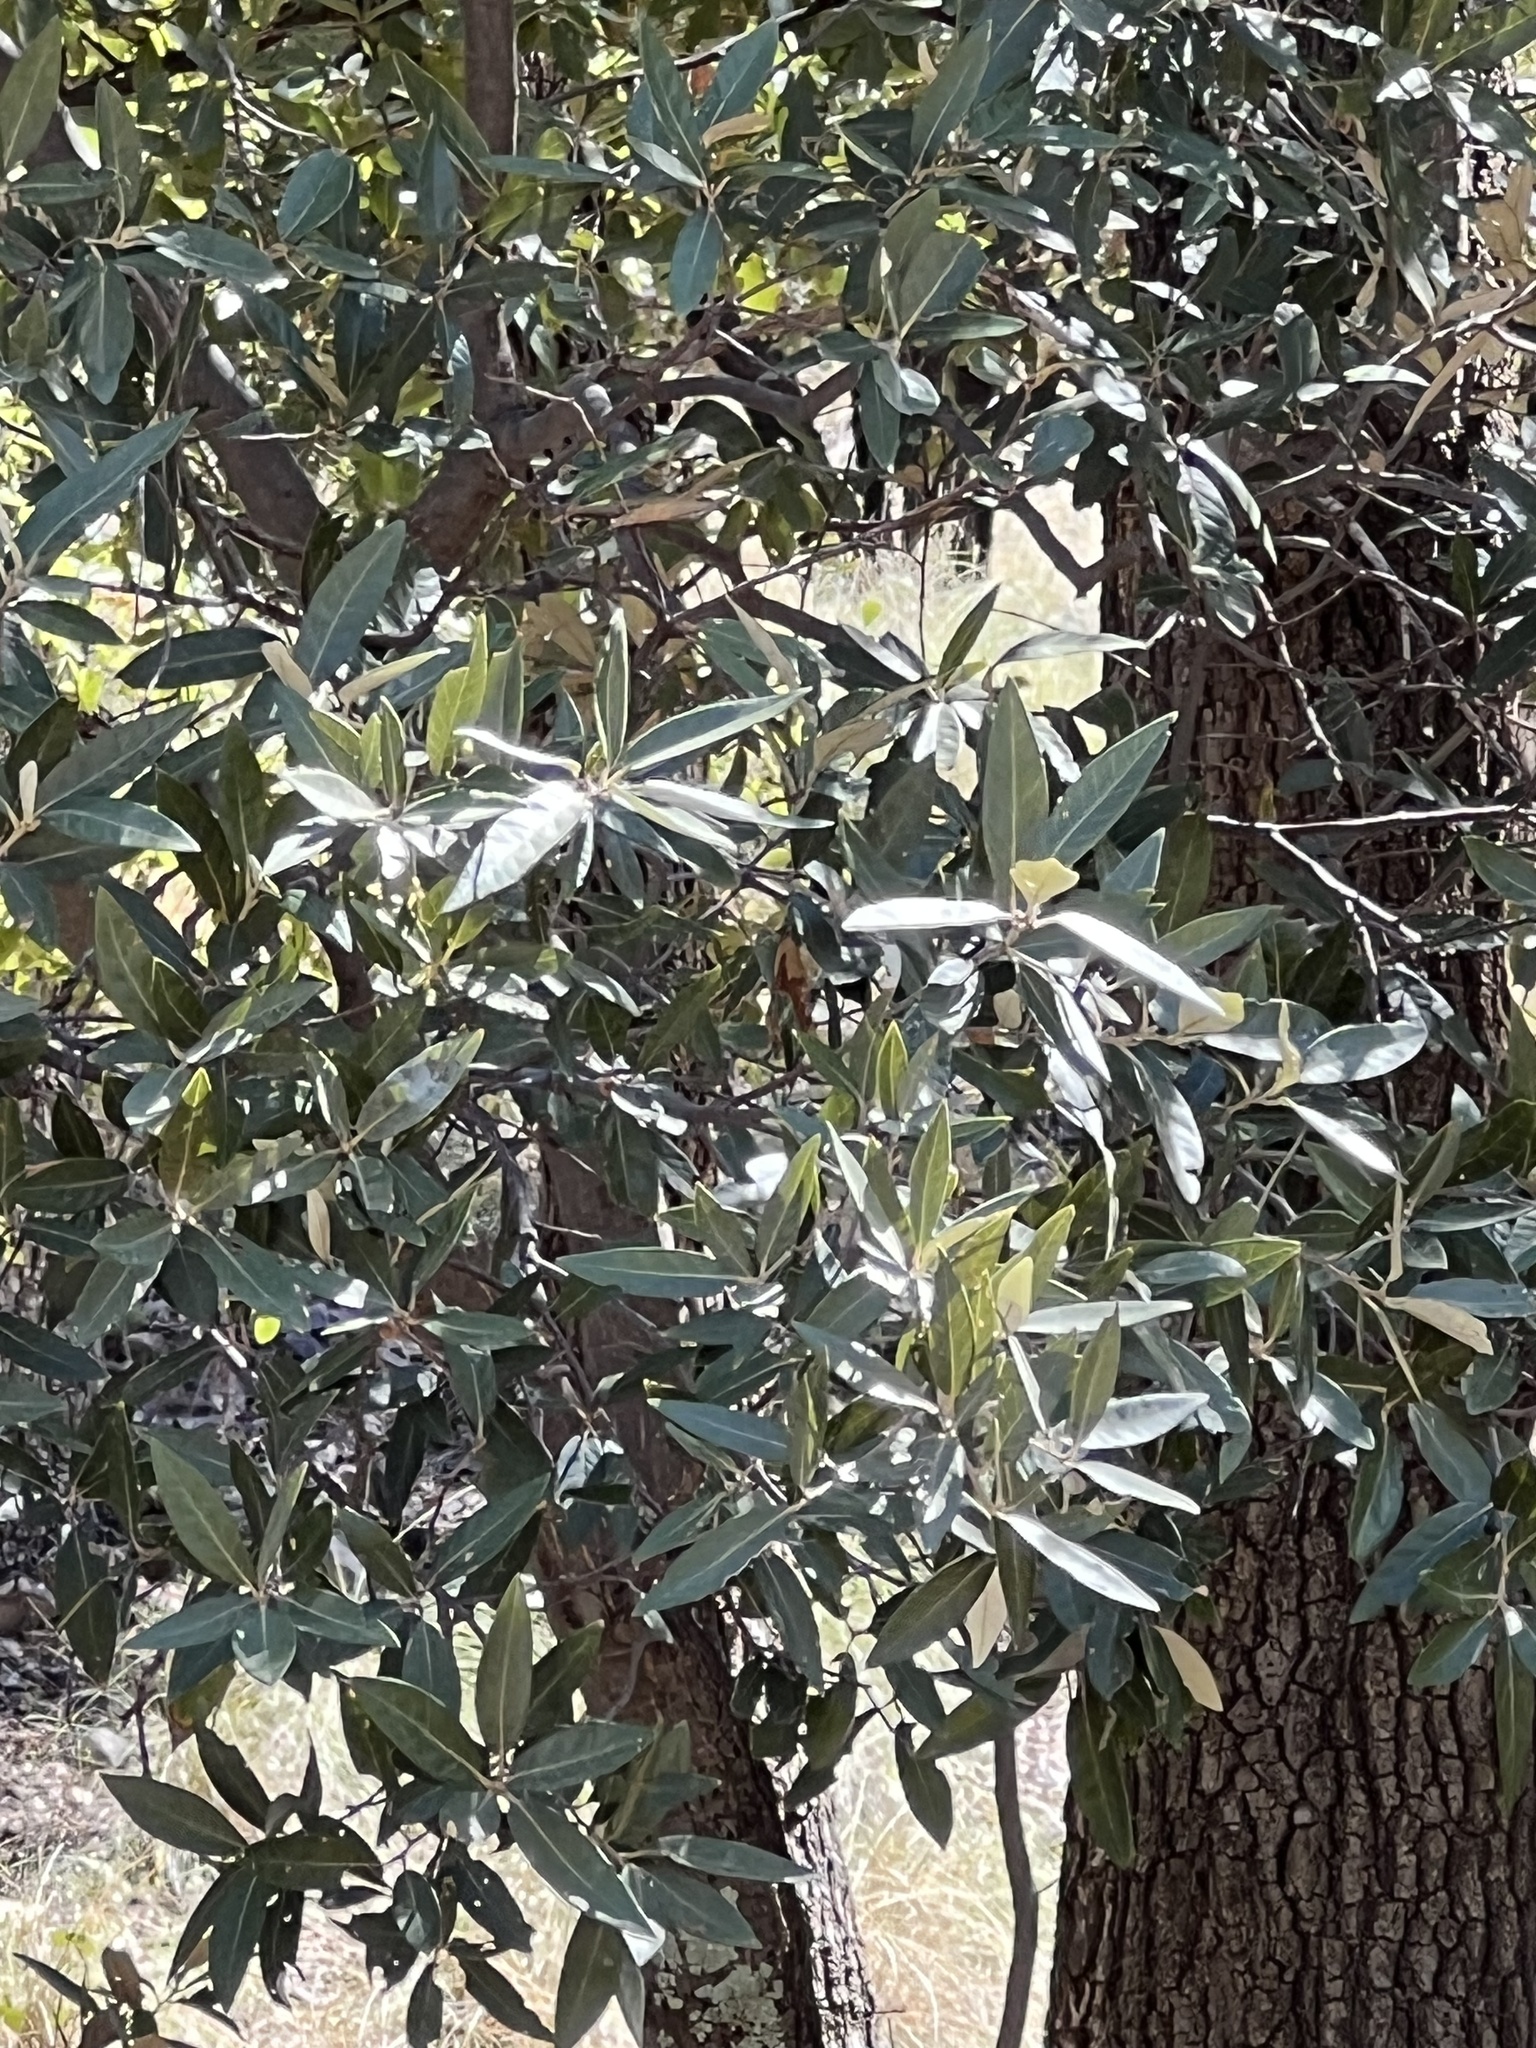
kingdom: Plantae
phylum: Tracheophyta
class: Magnoliopsida
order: Fagales
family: Fagaceae
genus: Quercus
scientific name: Quercus hypoleucoides
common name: Silverleaf oak
